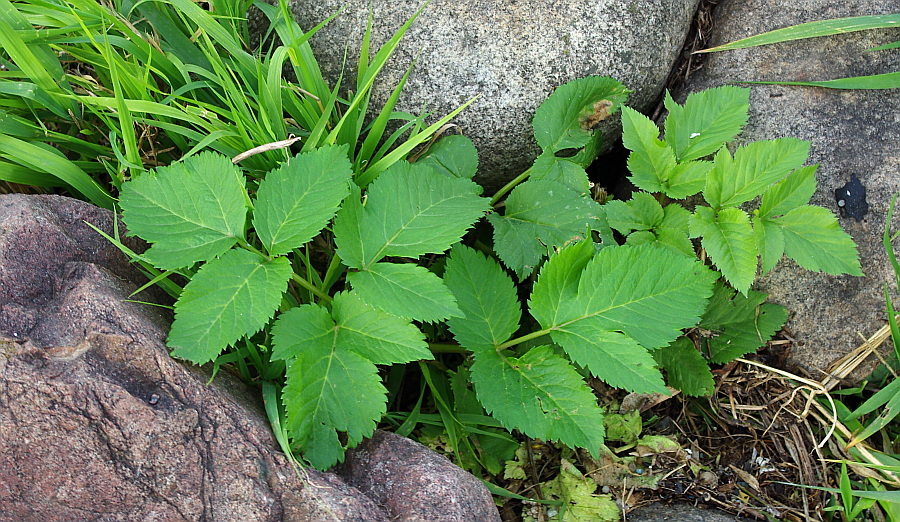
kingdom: Plantae
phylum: Tracheophyta
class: Magnoliopsida
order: Apiales
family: Apiaceae
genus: Angelica
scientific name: Angelica archangelica
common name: Garden angelica
